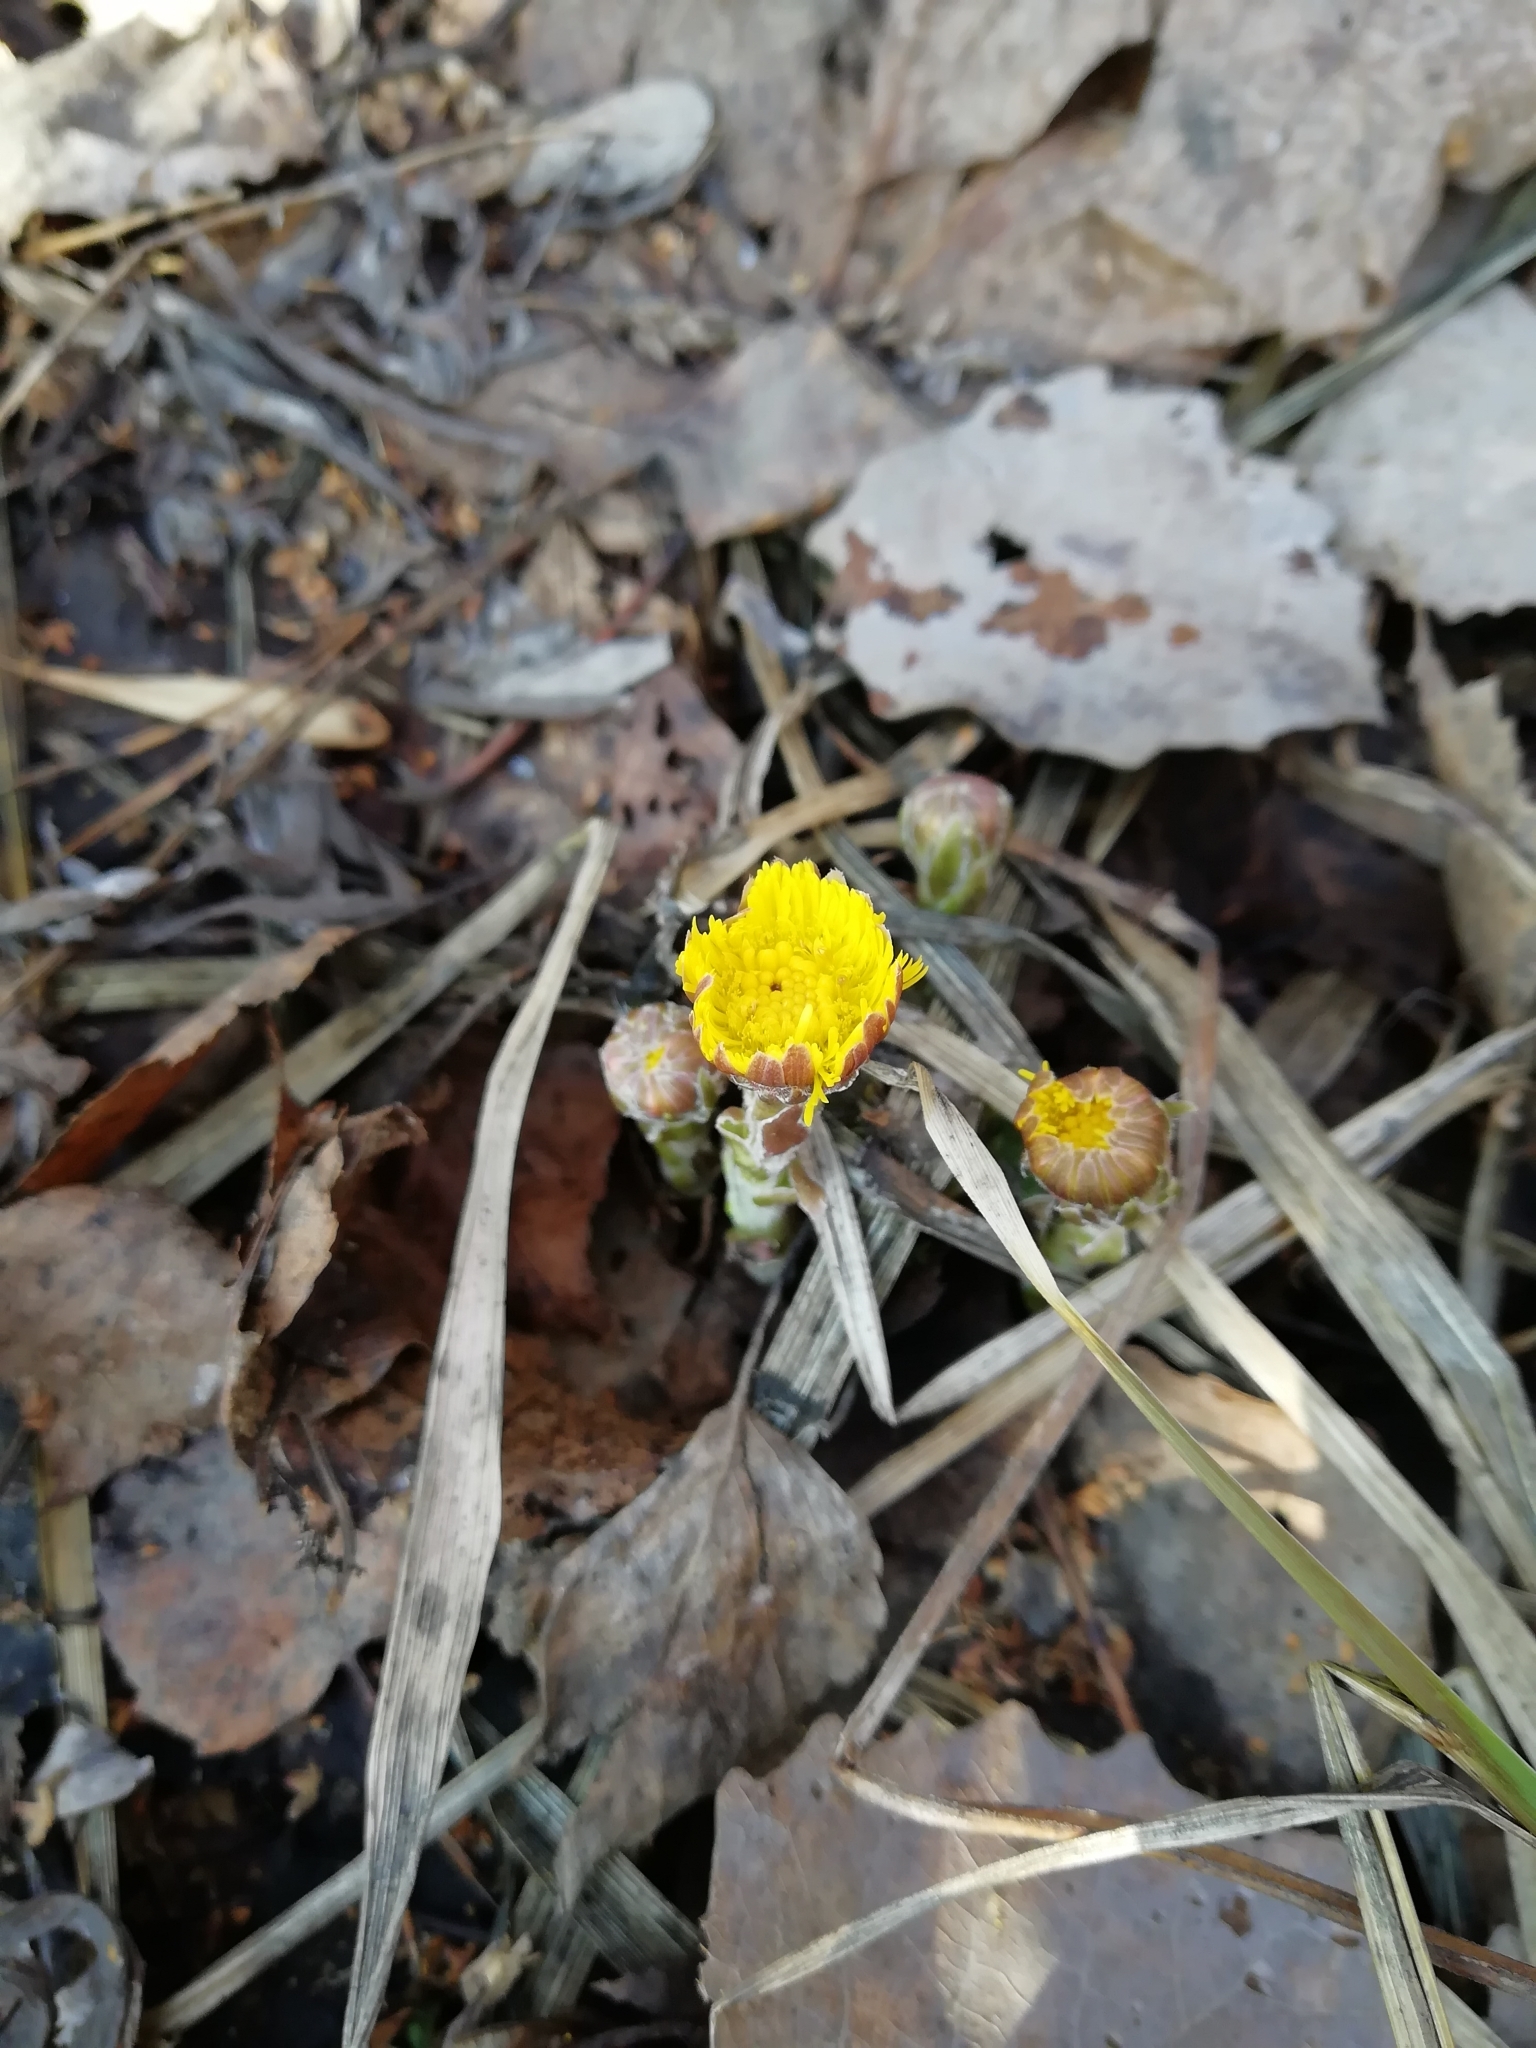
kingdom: Plantae
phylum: Tracheophyta
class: Magnoliopsida
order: Asterales
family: Asteraceae
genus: Tussilago
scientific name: Tussilago farfara
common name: Coltsfoot
